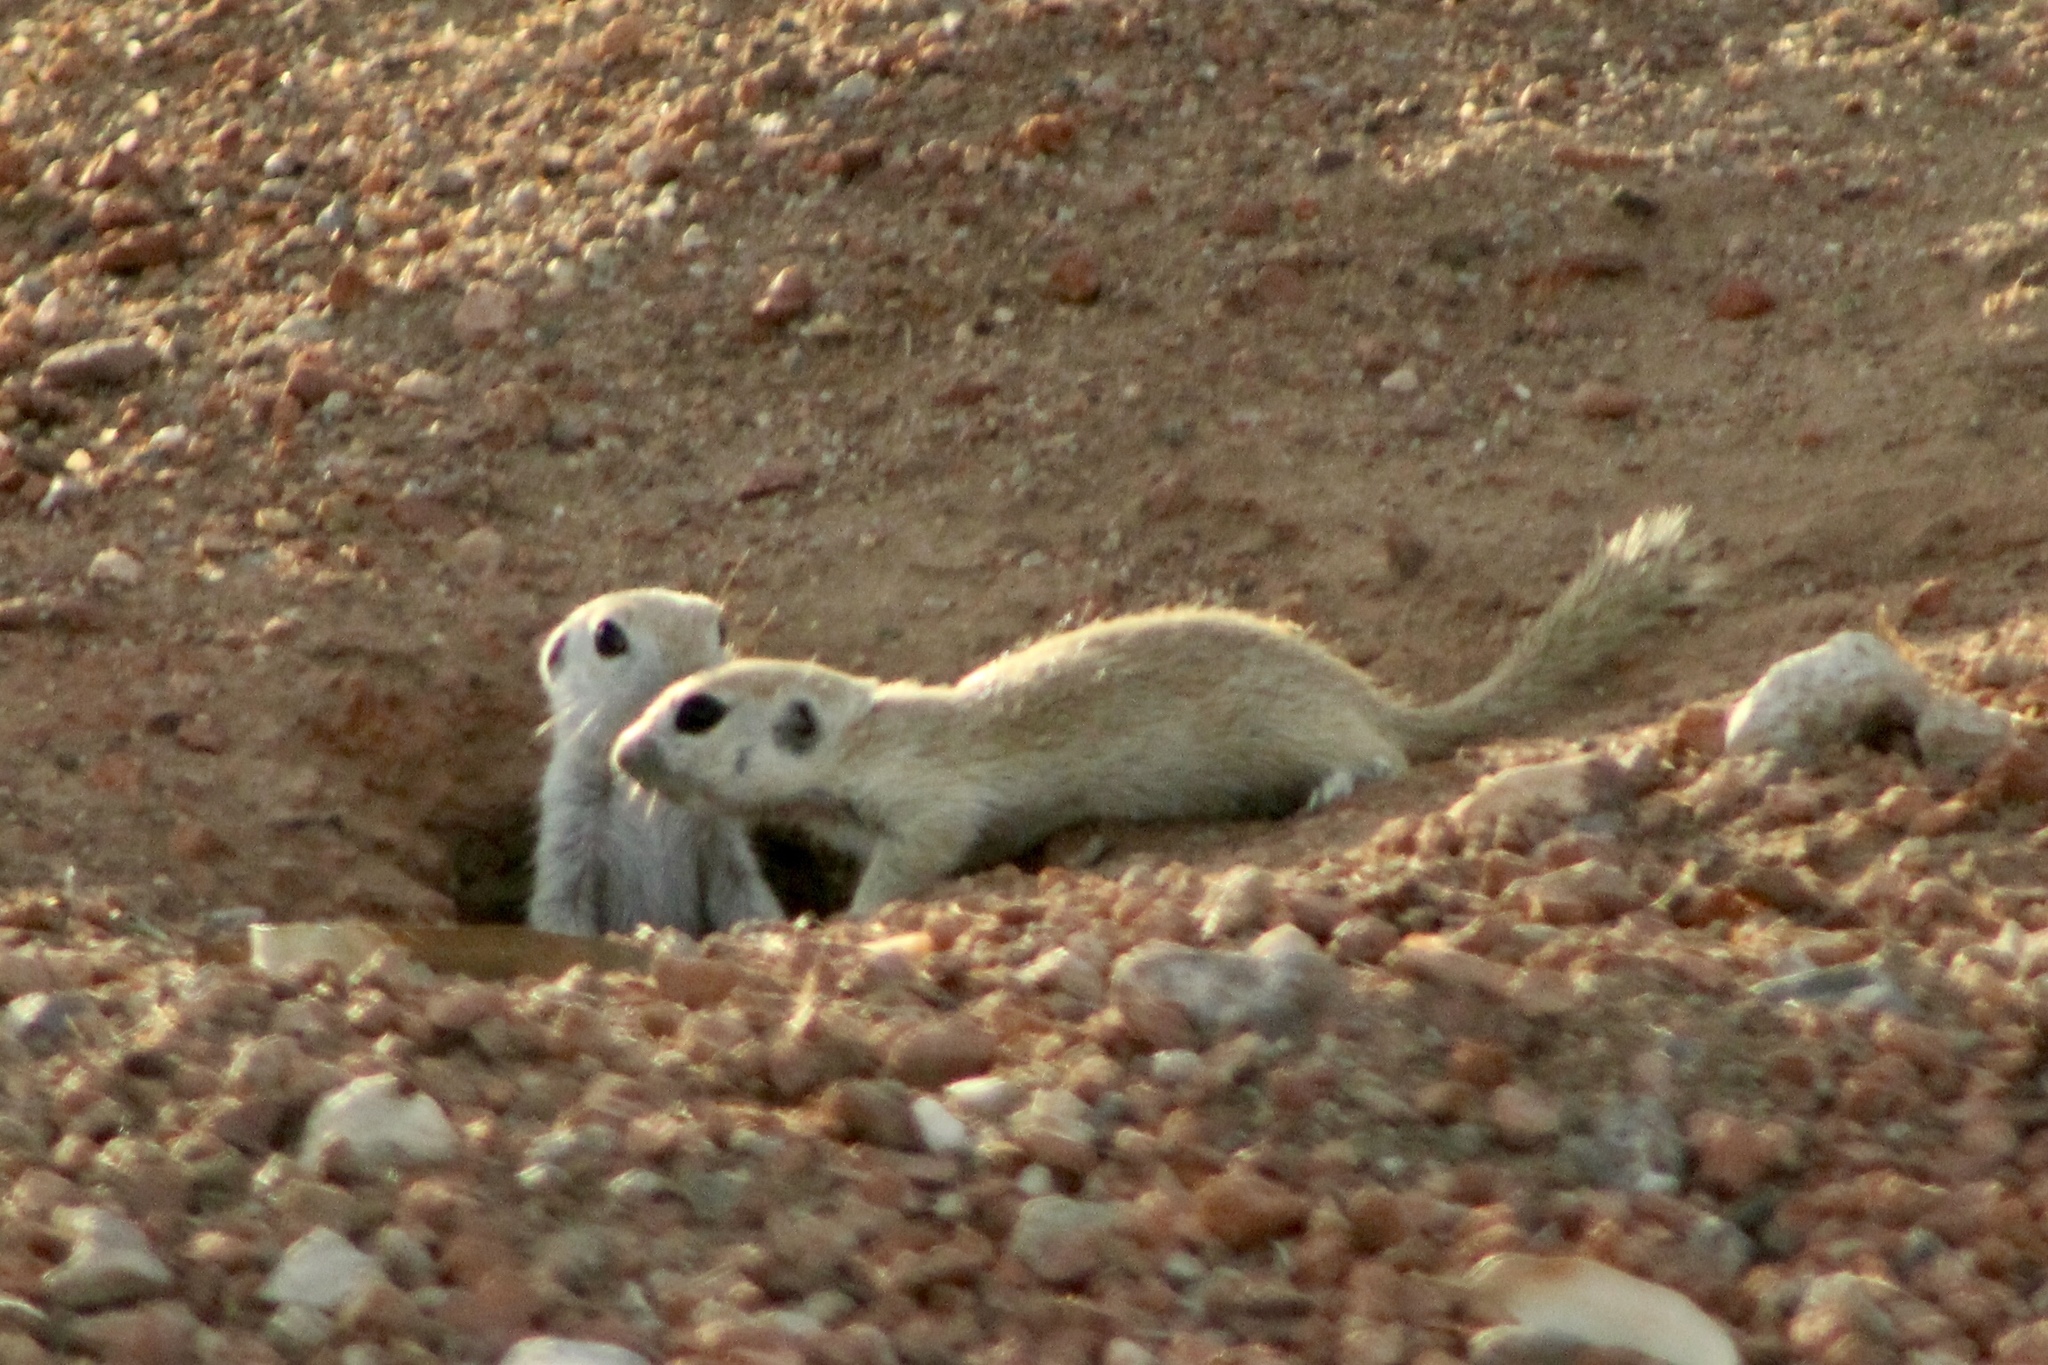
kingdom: Animalia
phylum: Chordata
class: Mammalia
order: Rodentia
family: Sciuridae
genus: Xerospermophilus
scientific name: Xerospermophilus tereticaudus
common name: Round-tailed ground squirrel
